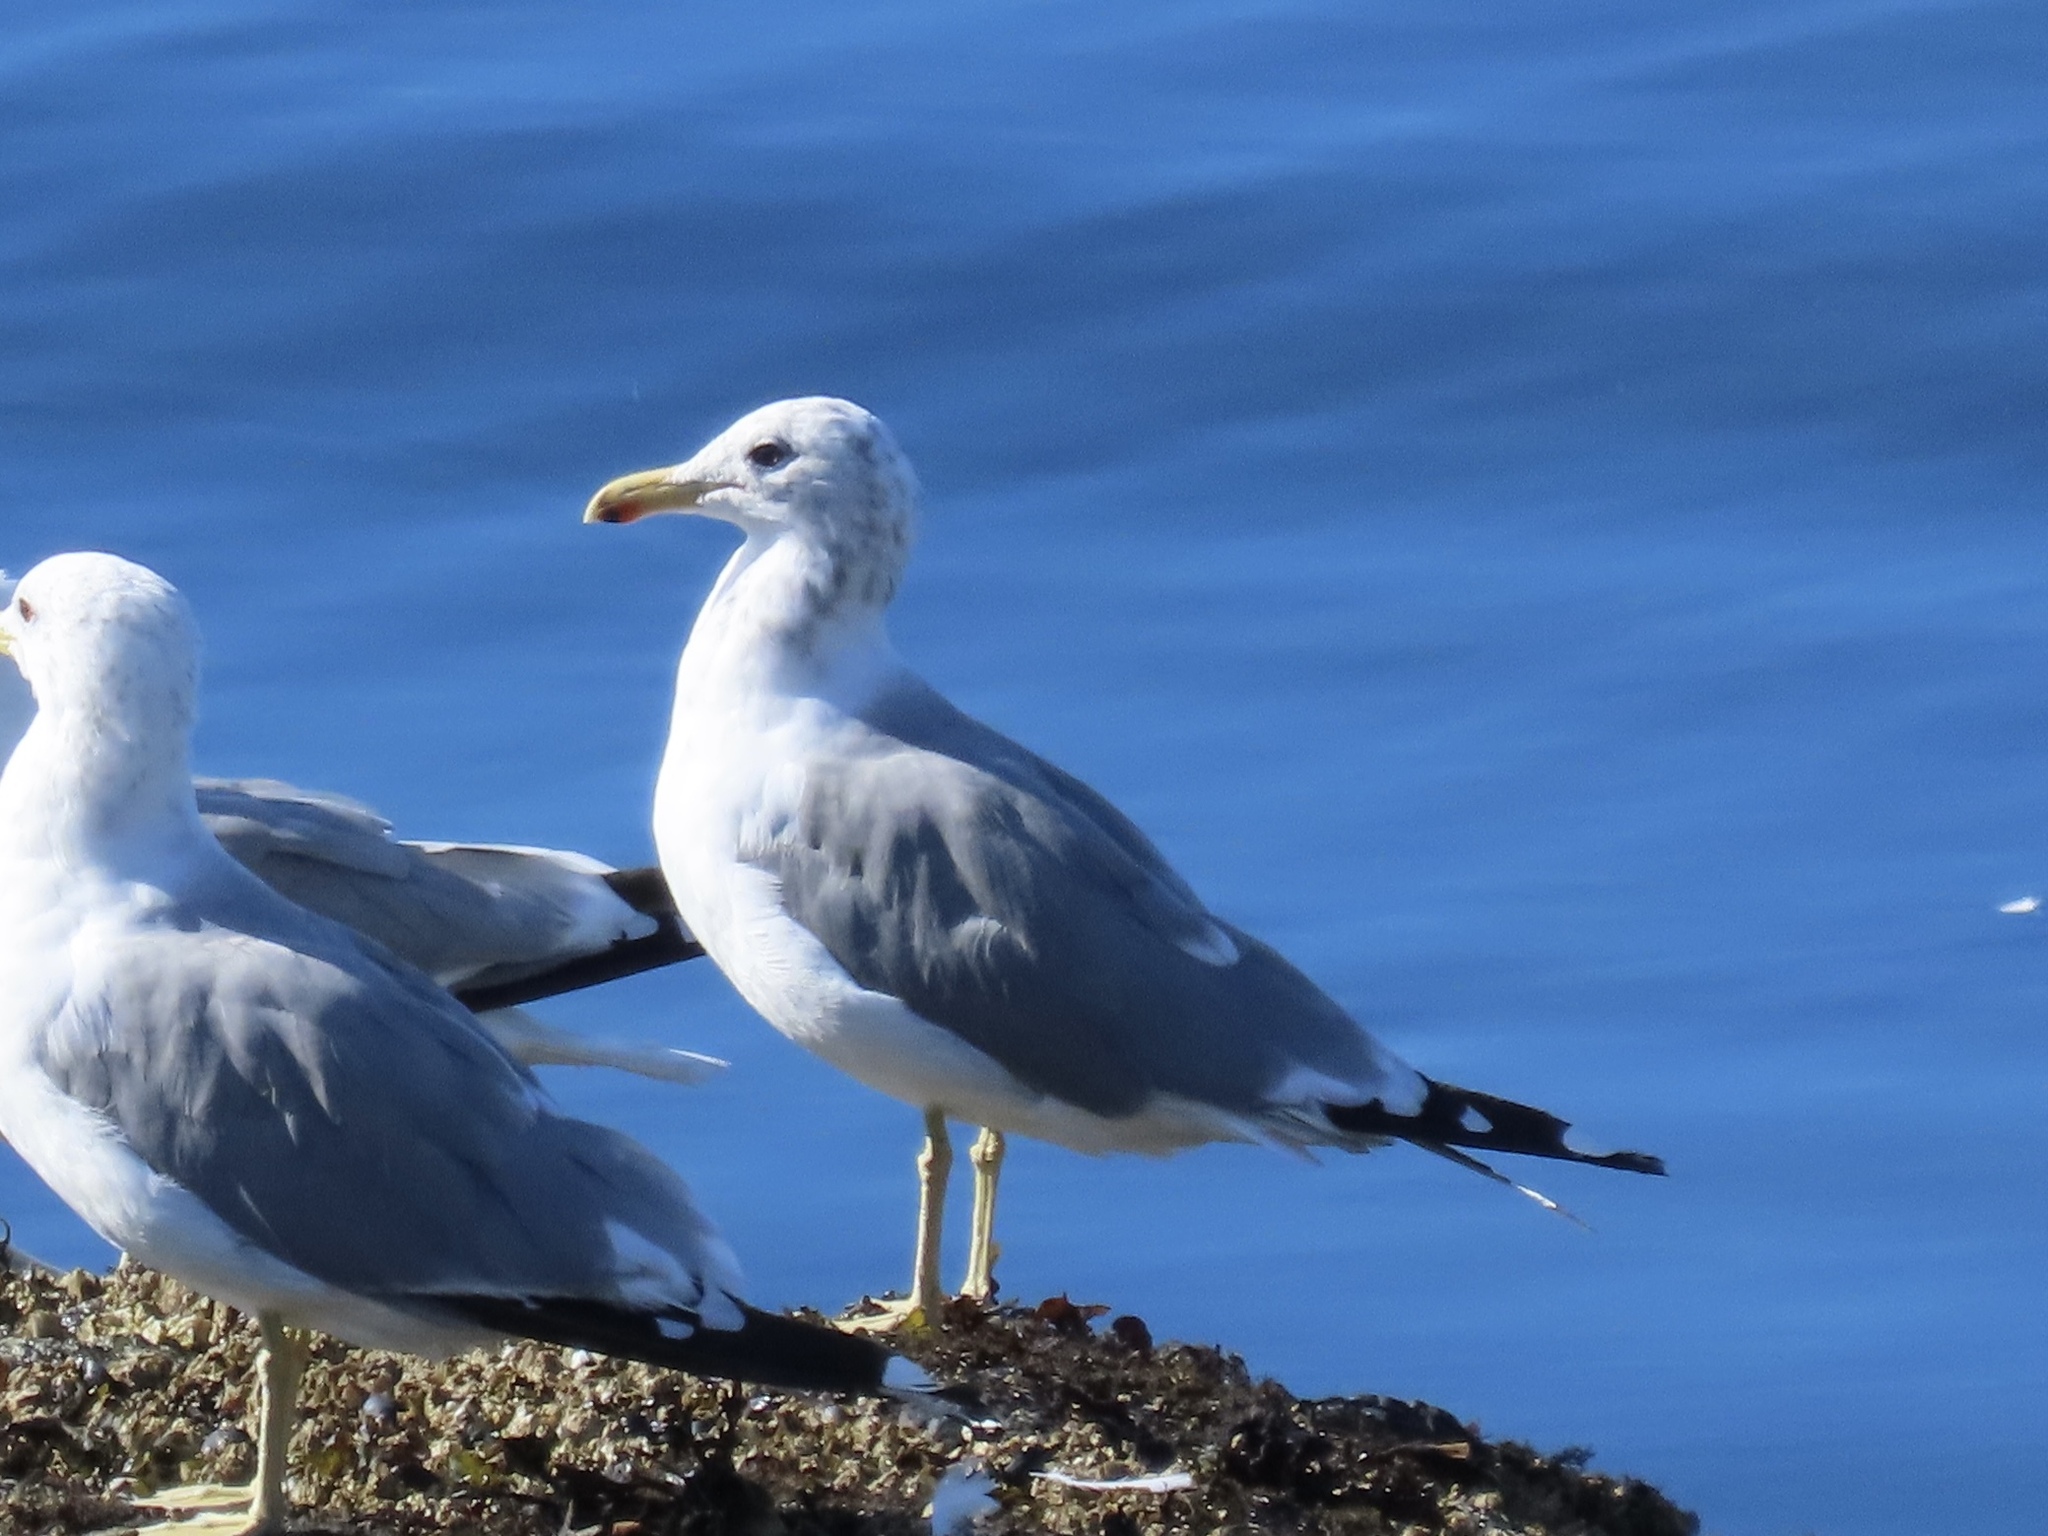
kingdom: Animalia
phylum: Chordata
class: Aves
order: Charadriiformes
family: Laridae
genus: Larus
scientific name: Larus californicus
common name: California gull
